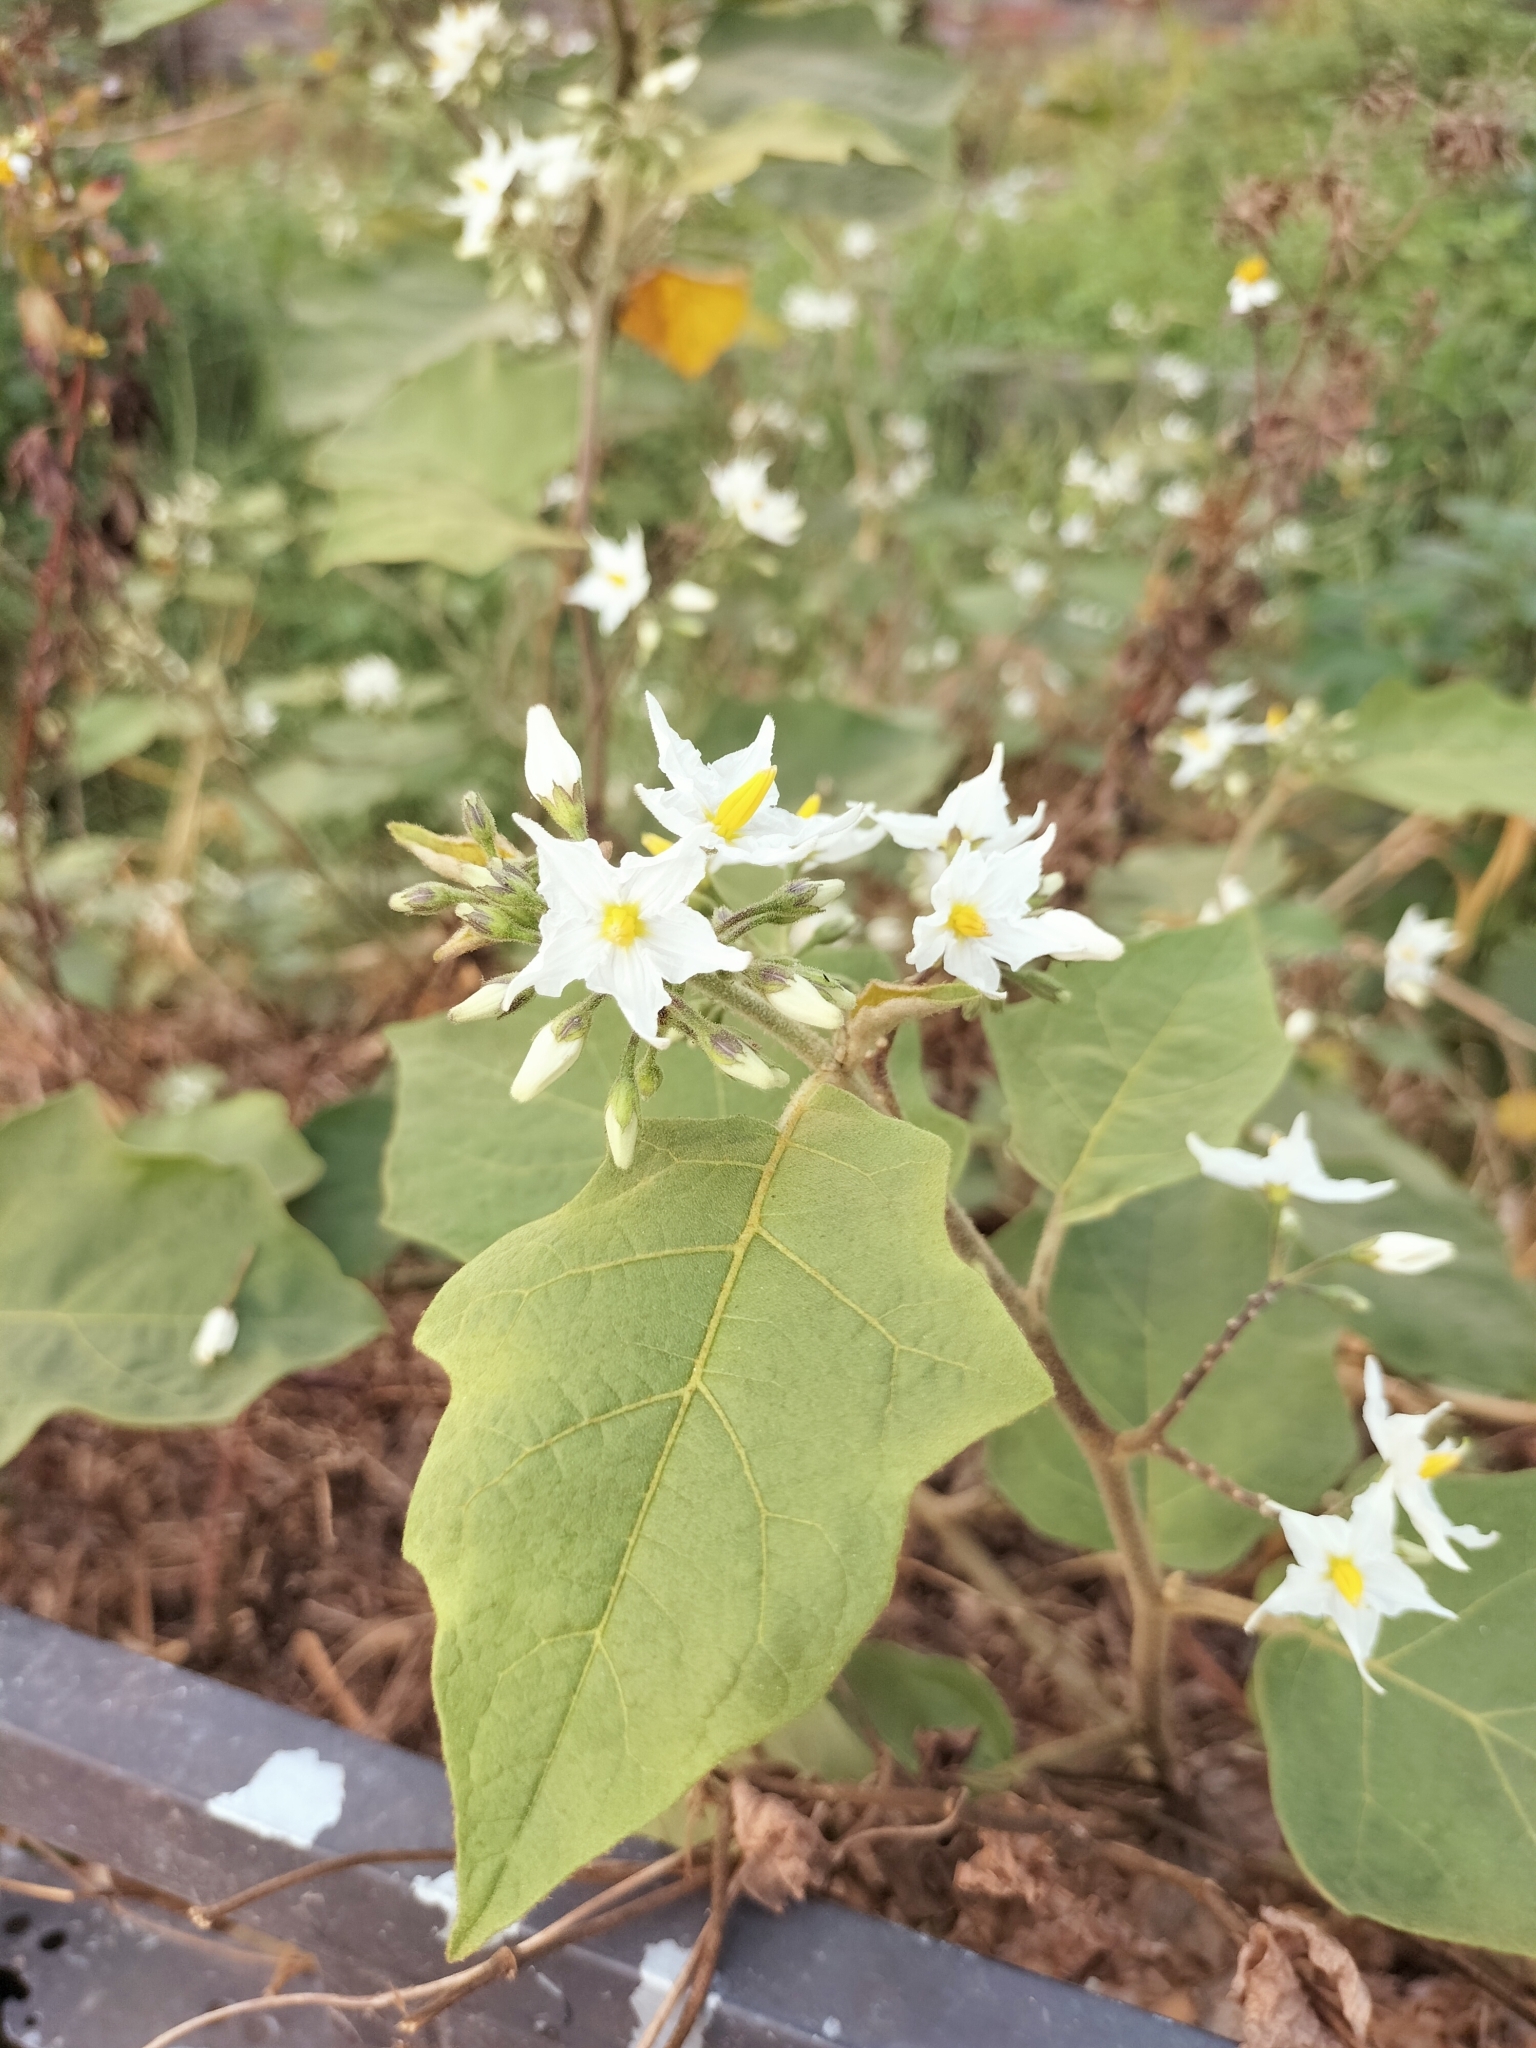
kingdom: Plantae
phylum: Tracheophyta
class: Magnoliopsida
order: Solanales
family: Solanaceae
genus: Solanum
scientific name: Solanum torvum
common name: Turkey berry
